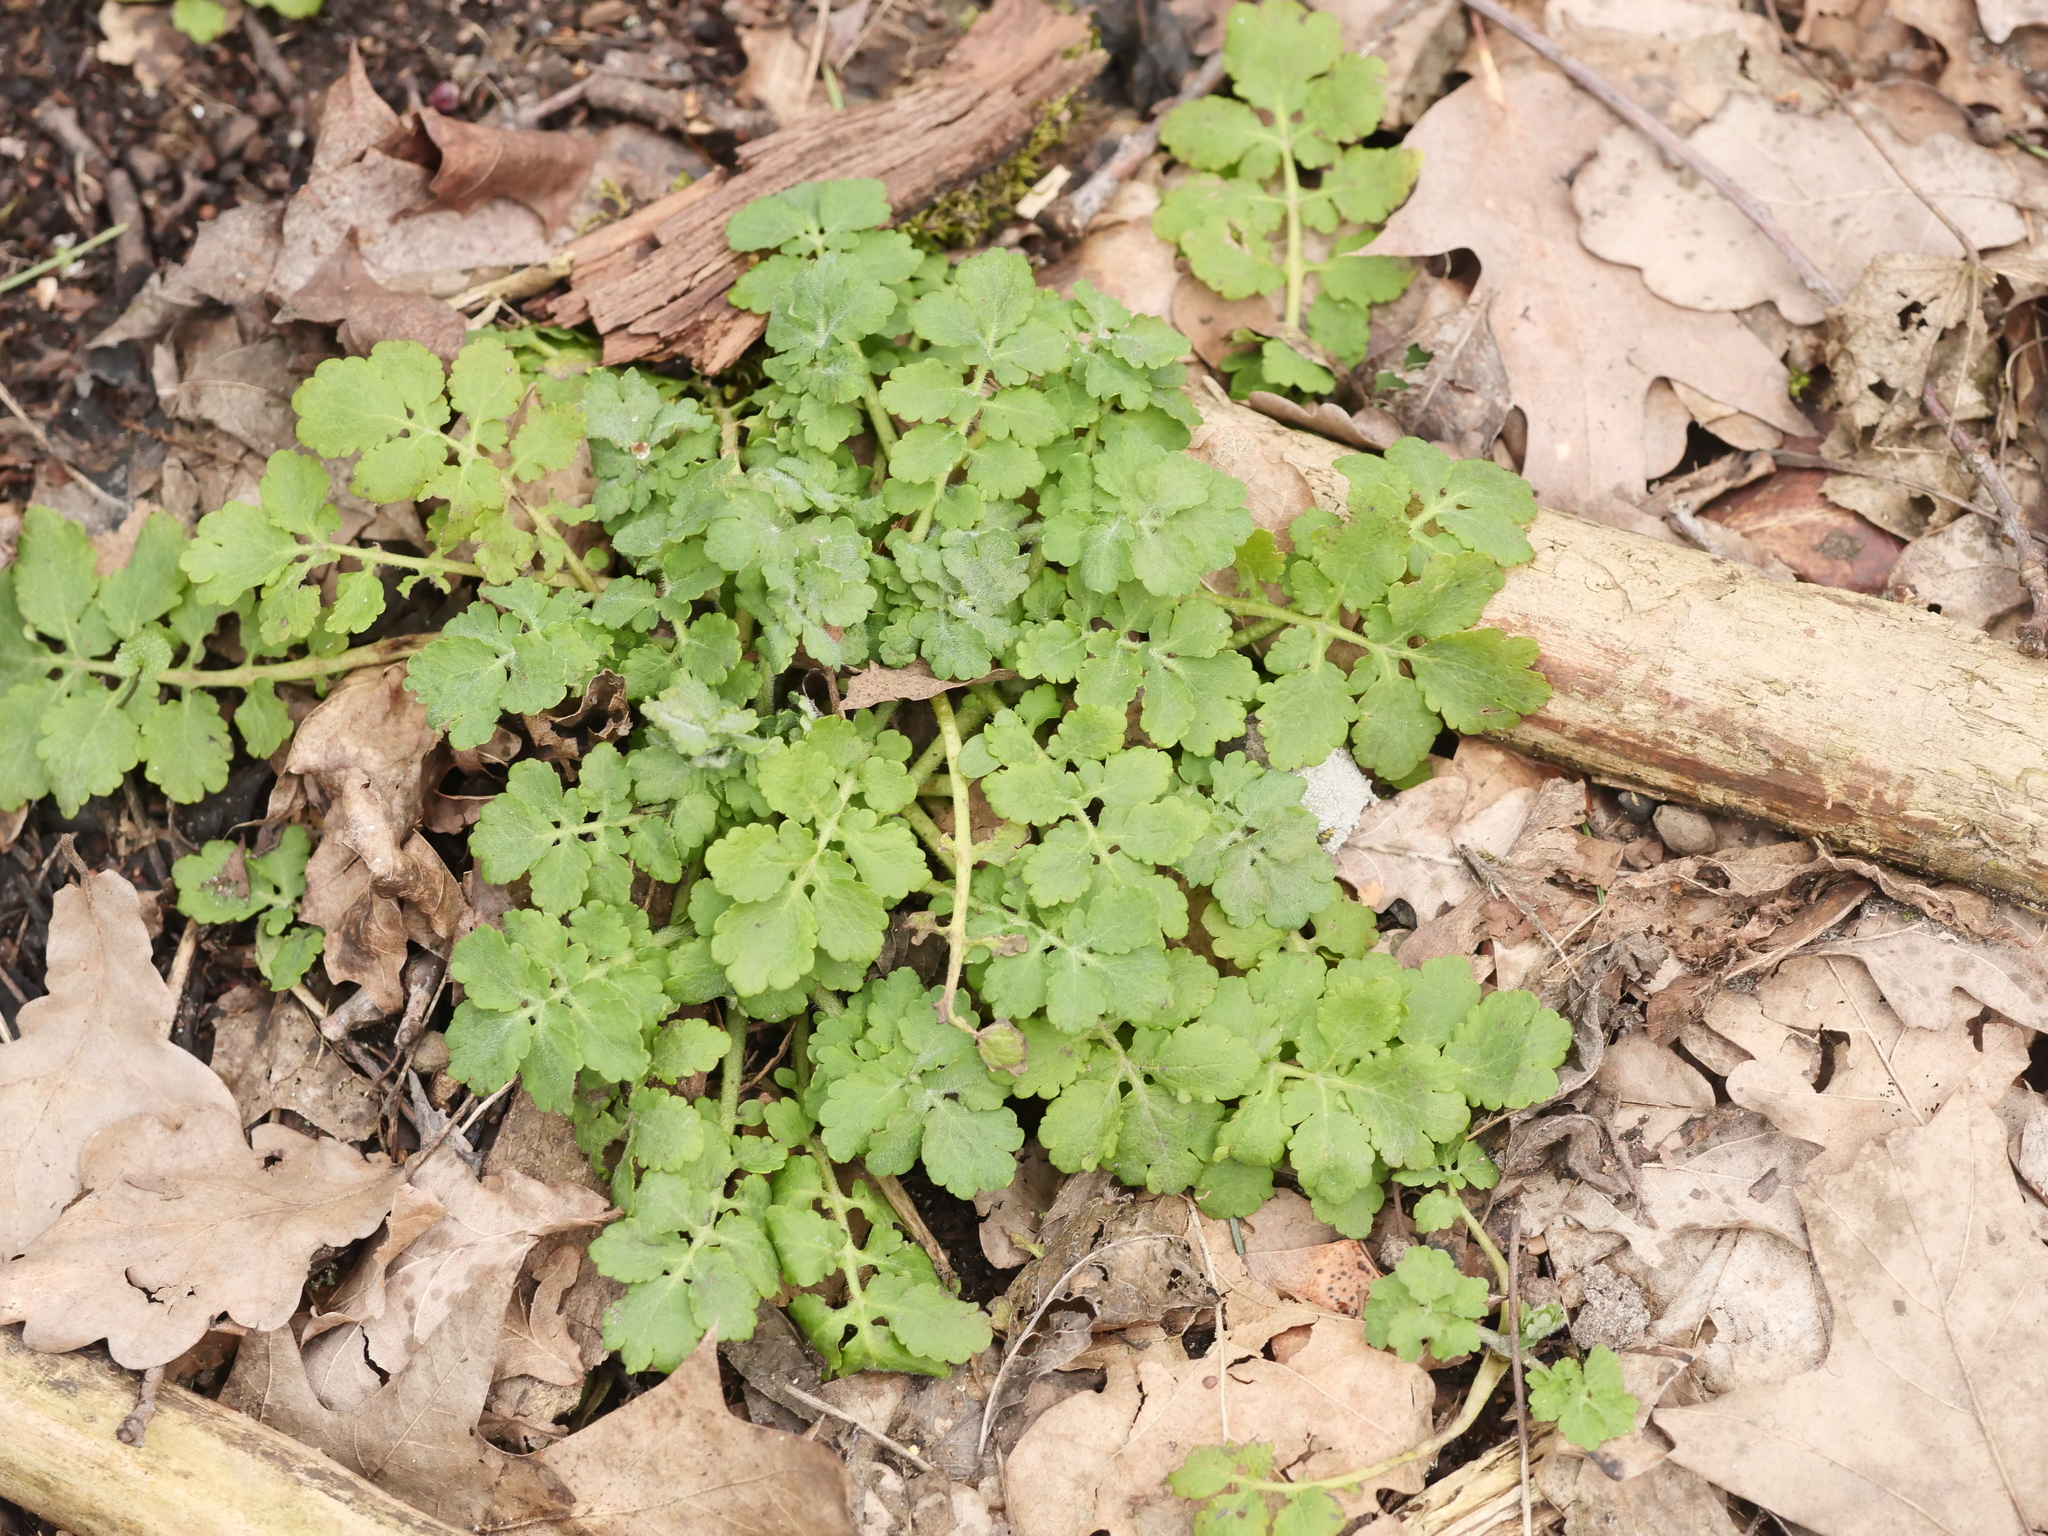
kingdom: Plantae
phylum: Tracheophyta
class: Magnoliopsida
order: Ranunculales
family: Papaveraceae
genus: Chelidonium
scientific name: Chelidonium majus
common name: Greater celandine
